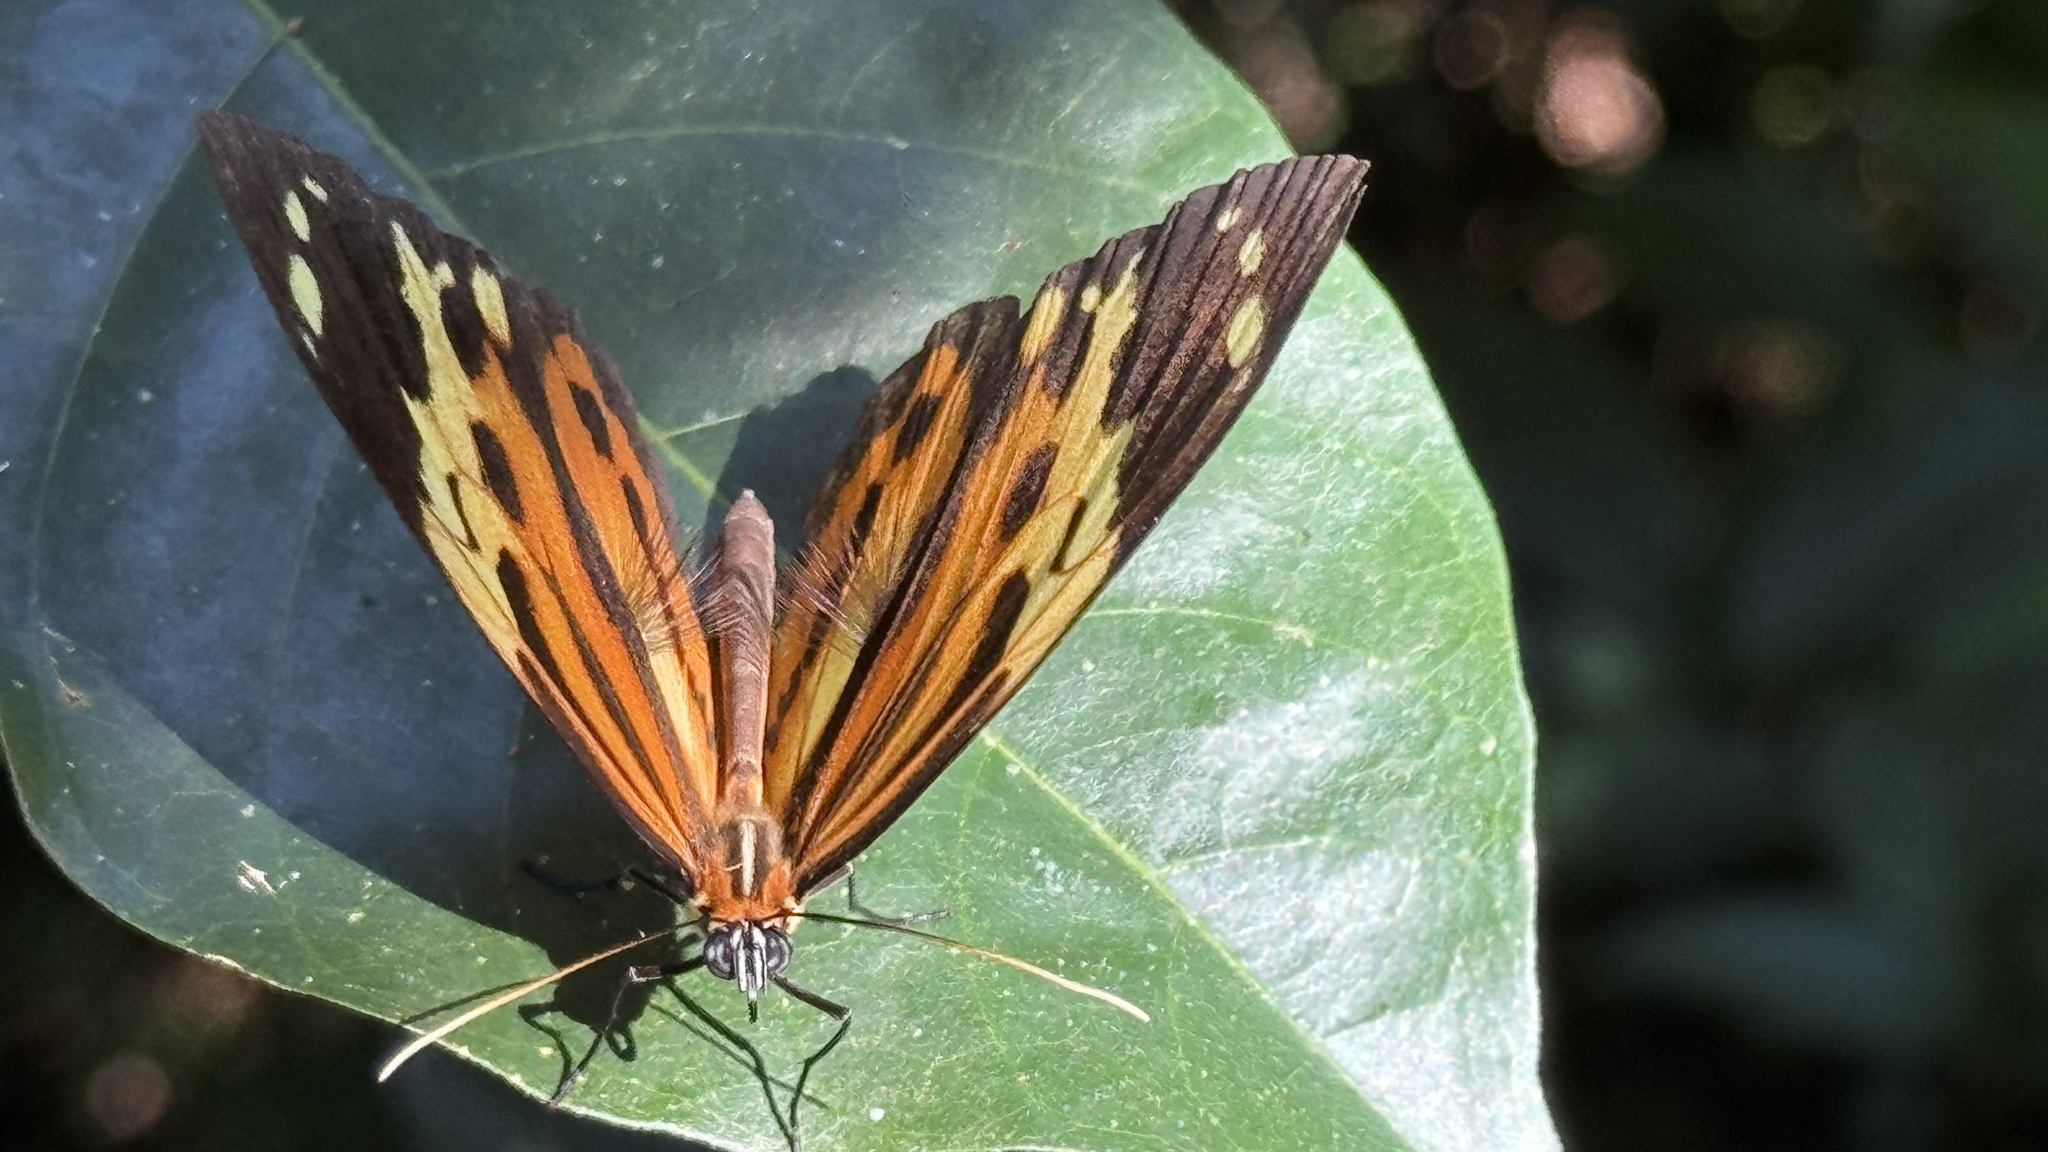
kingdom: Animalia
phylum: Arthropoda
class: Insecta
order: Lepidoptera
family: Nymphalidae
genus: Tithorea
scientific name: Tithorea harmonia
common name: Harmonia tigerwing
